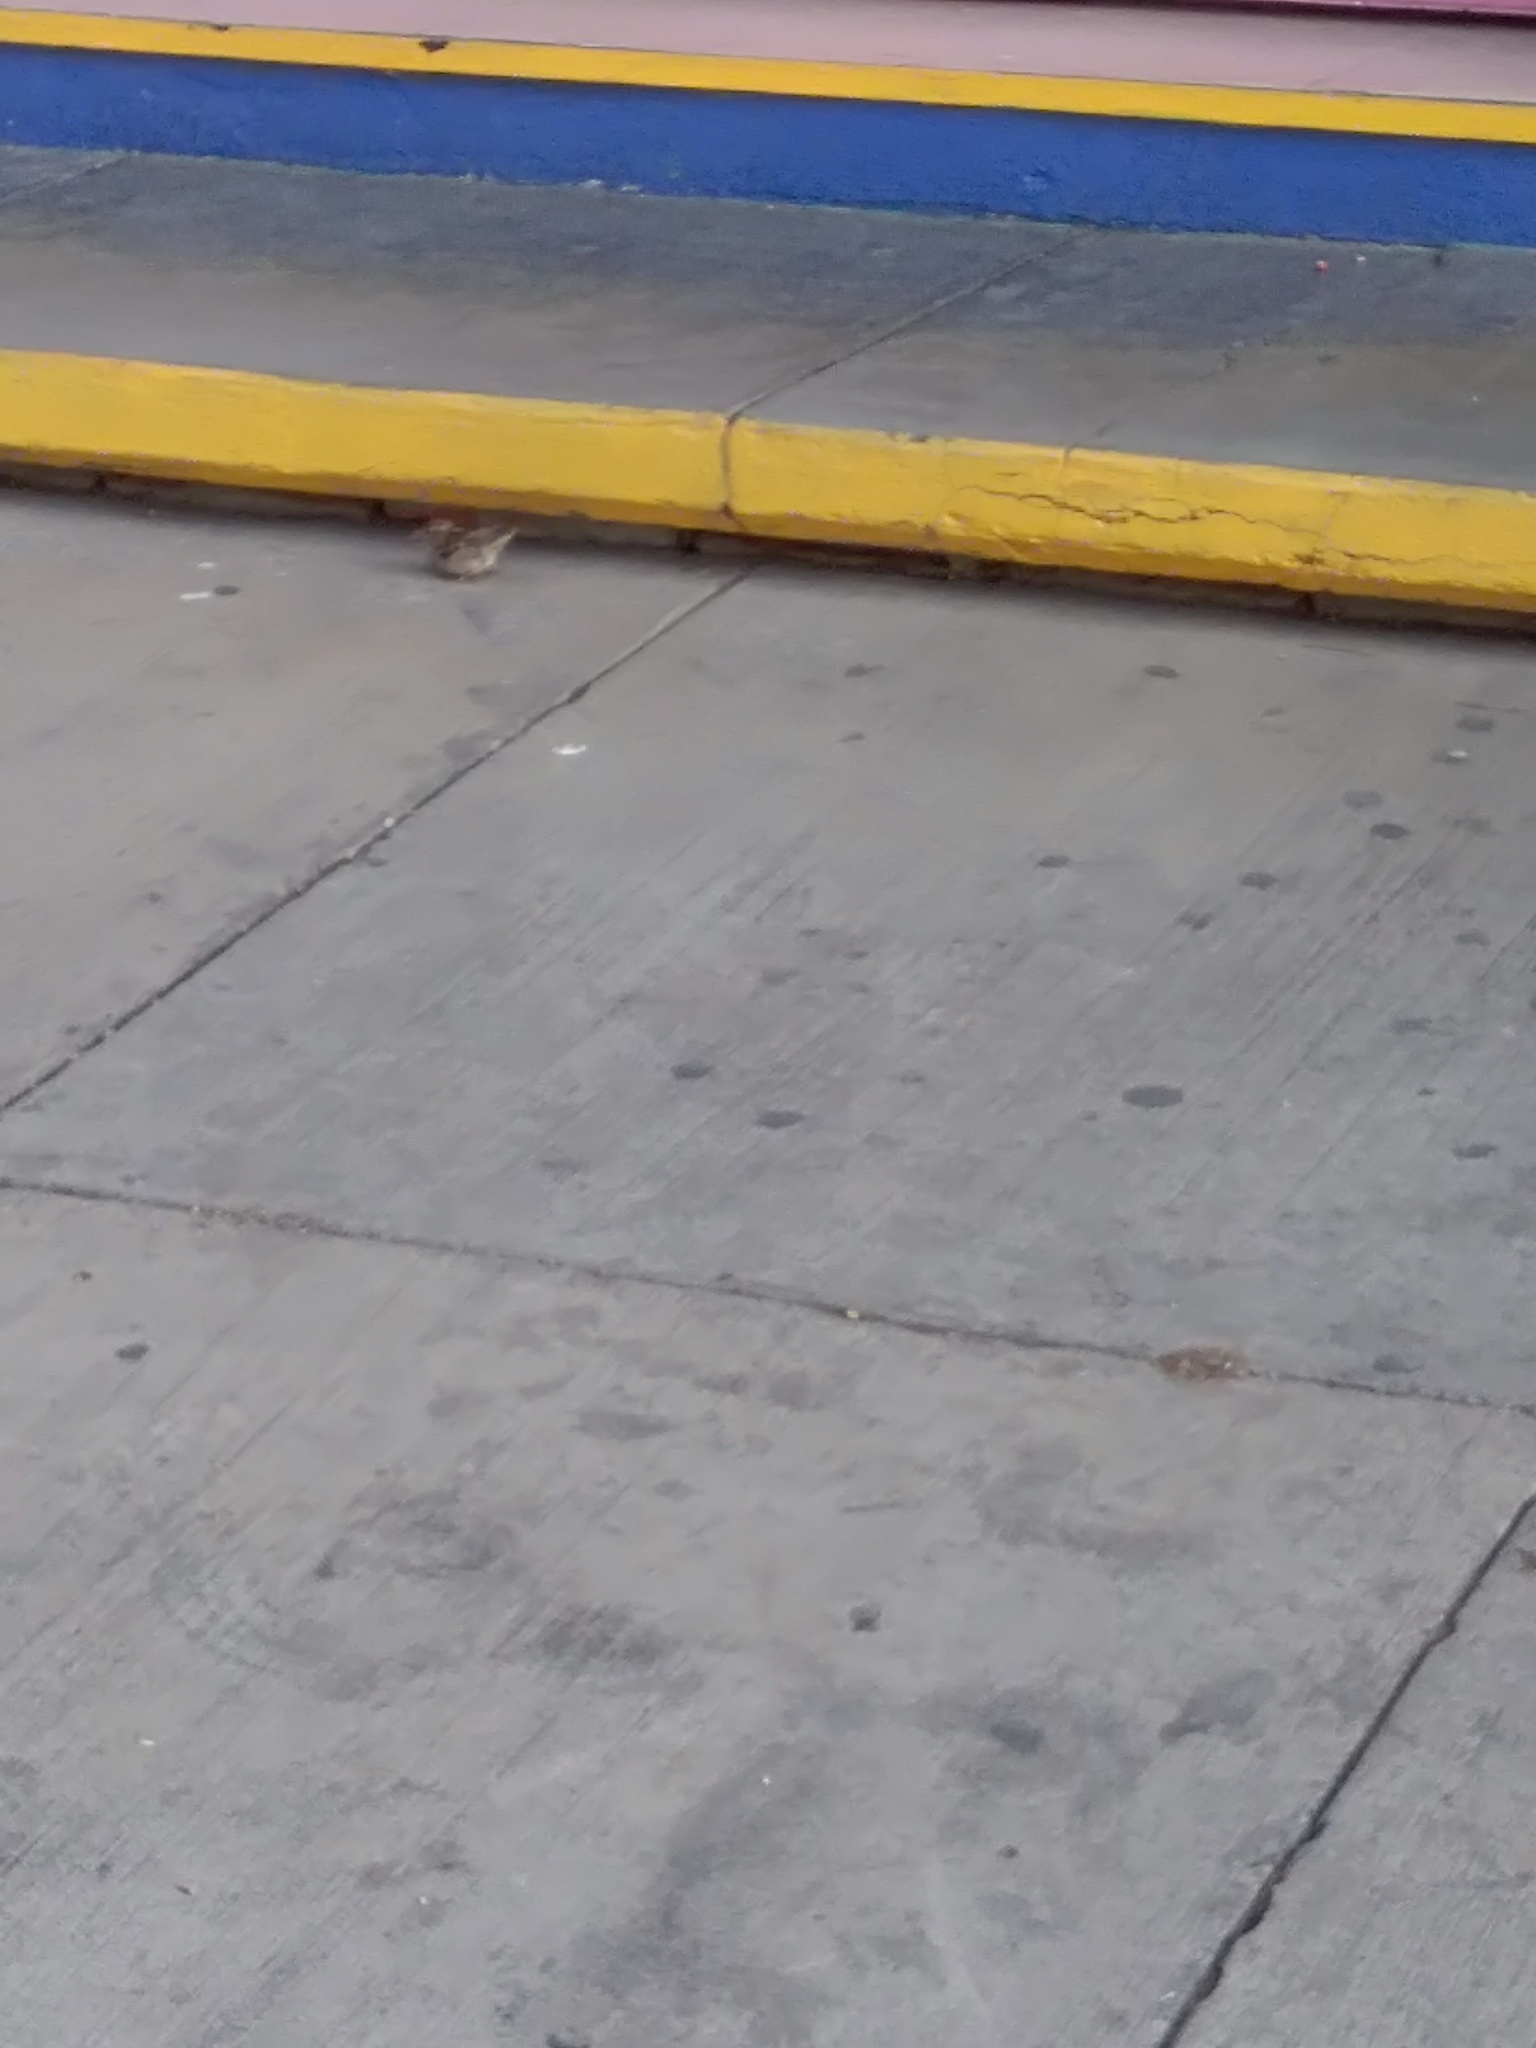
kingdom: Animalia
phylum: Chordata
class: Aves
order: Passeriformes
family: Passeridae
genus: Passer
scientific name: Passer domesticus
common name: House sparrow
